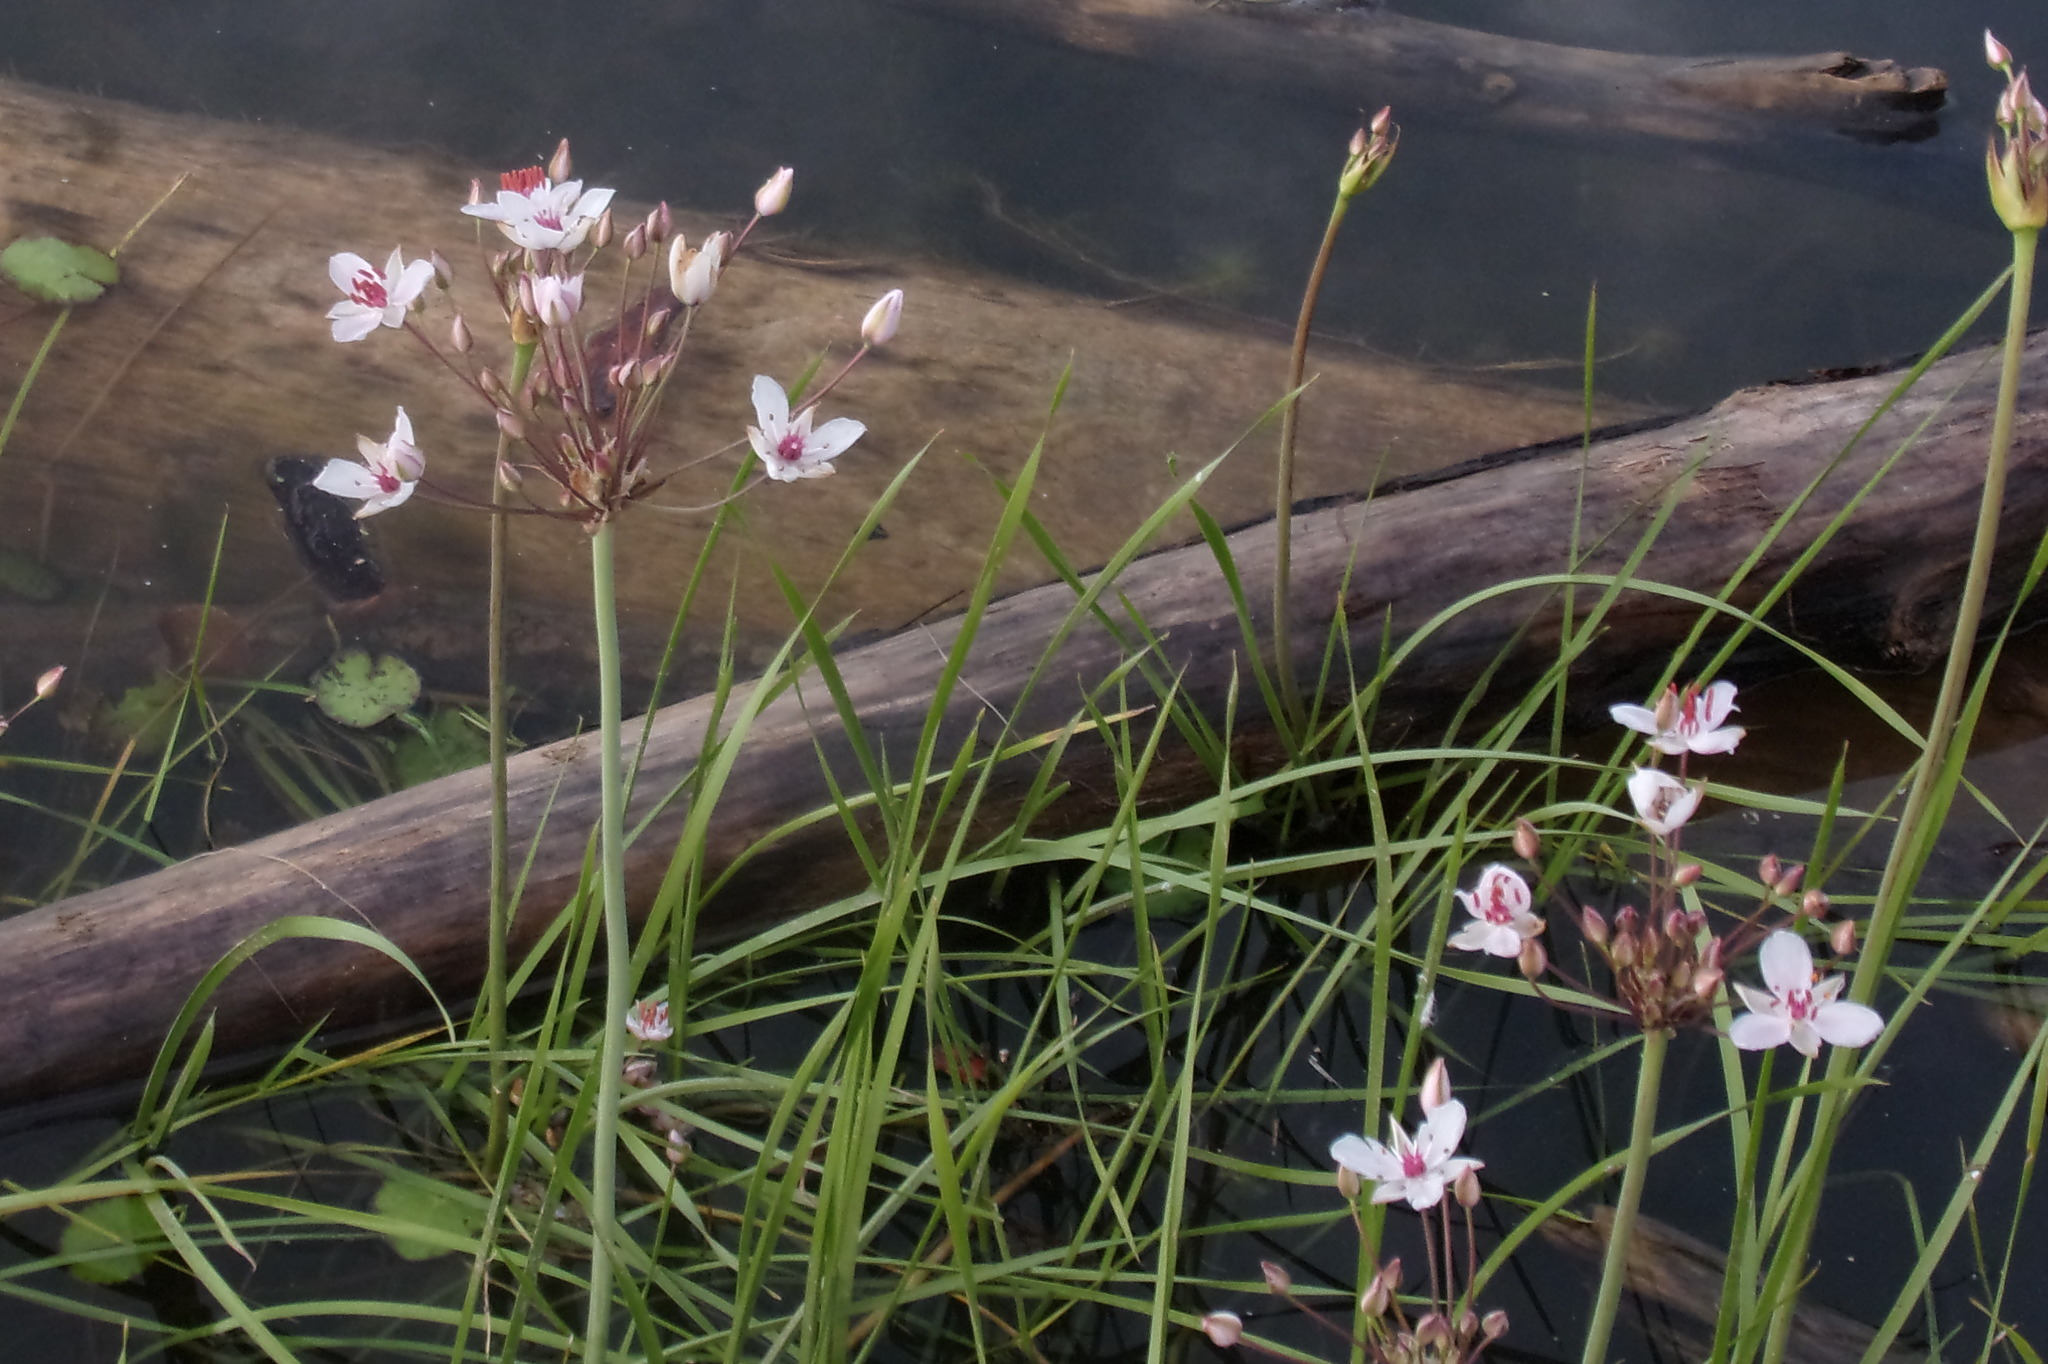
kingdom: Plantae
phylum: Tracheophyta
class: Liliopsida
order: Alismatales
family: Butomaceae
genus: Butomus
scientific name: Butomus umbellatus
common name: Flowering-rush
